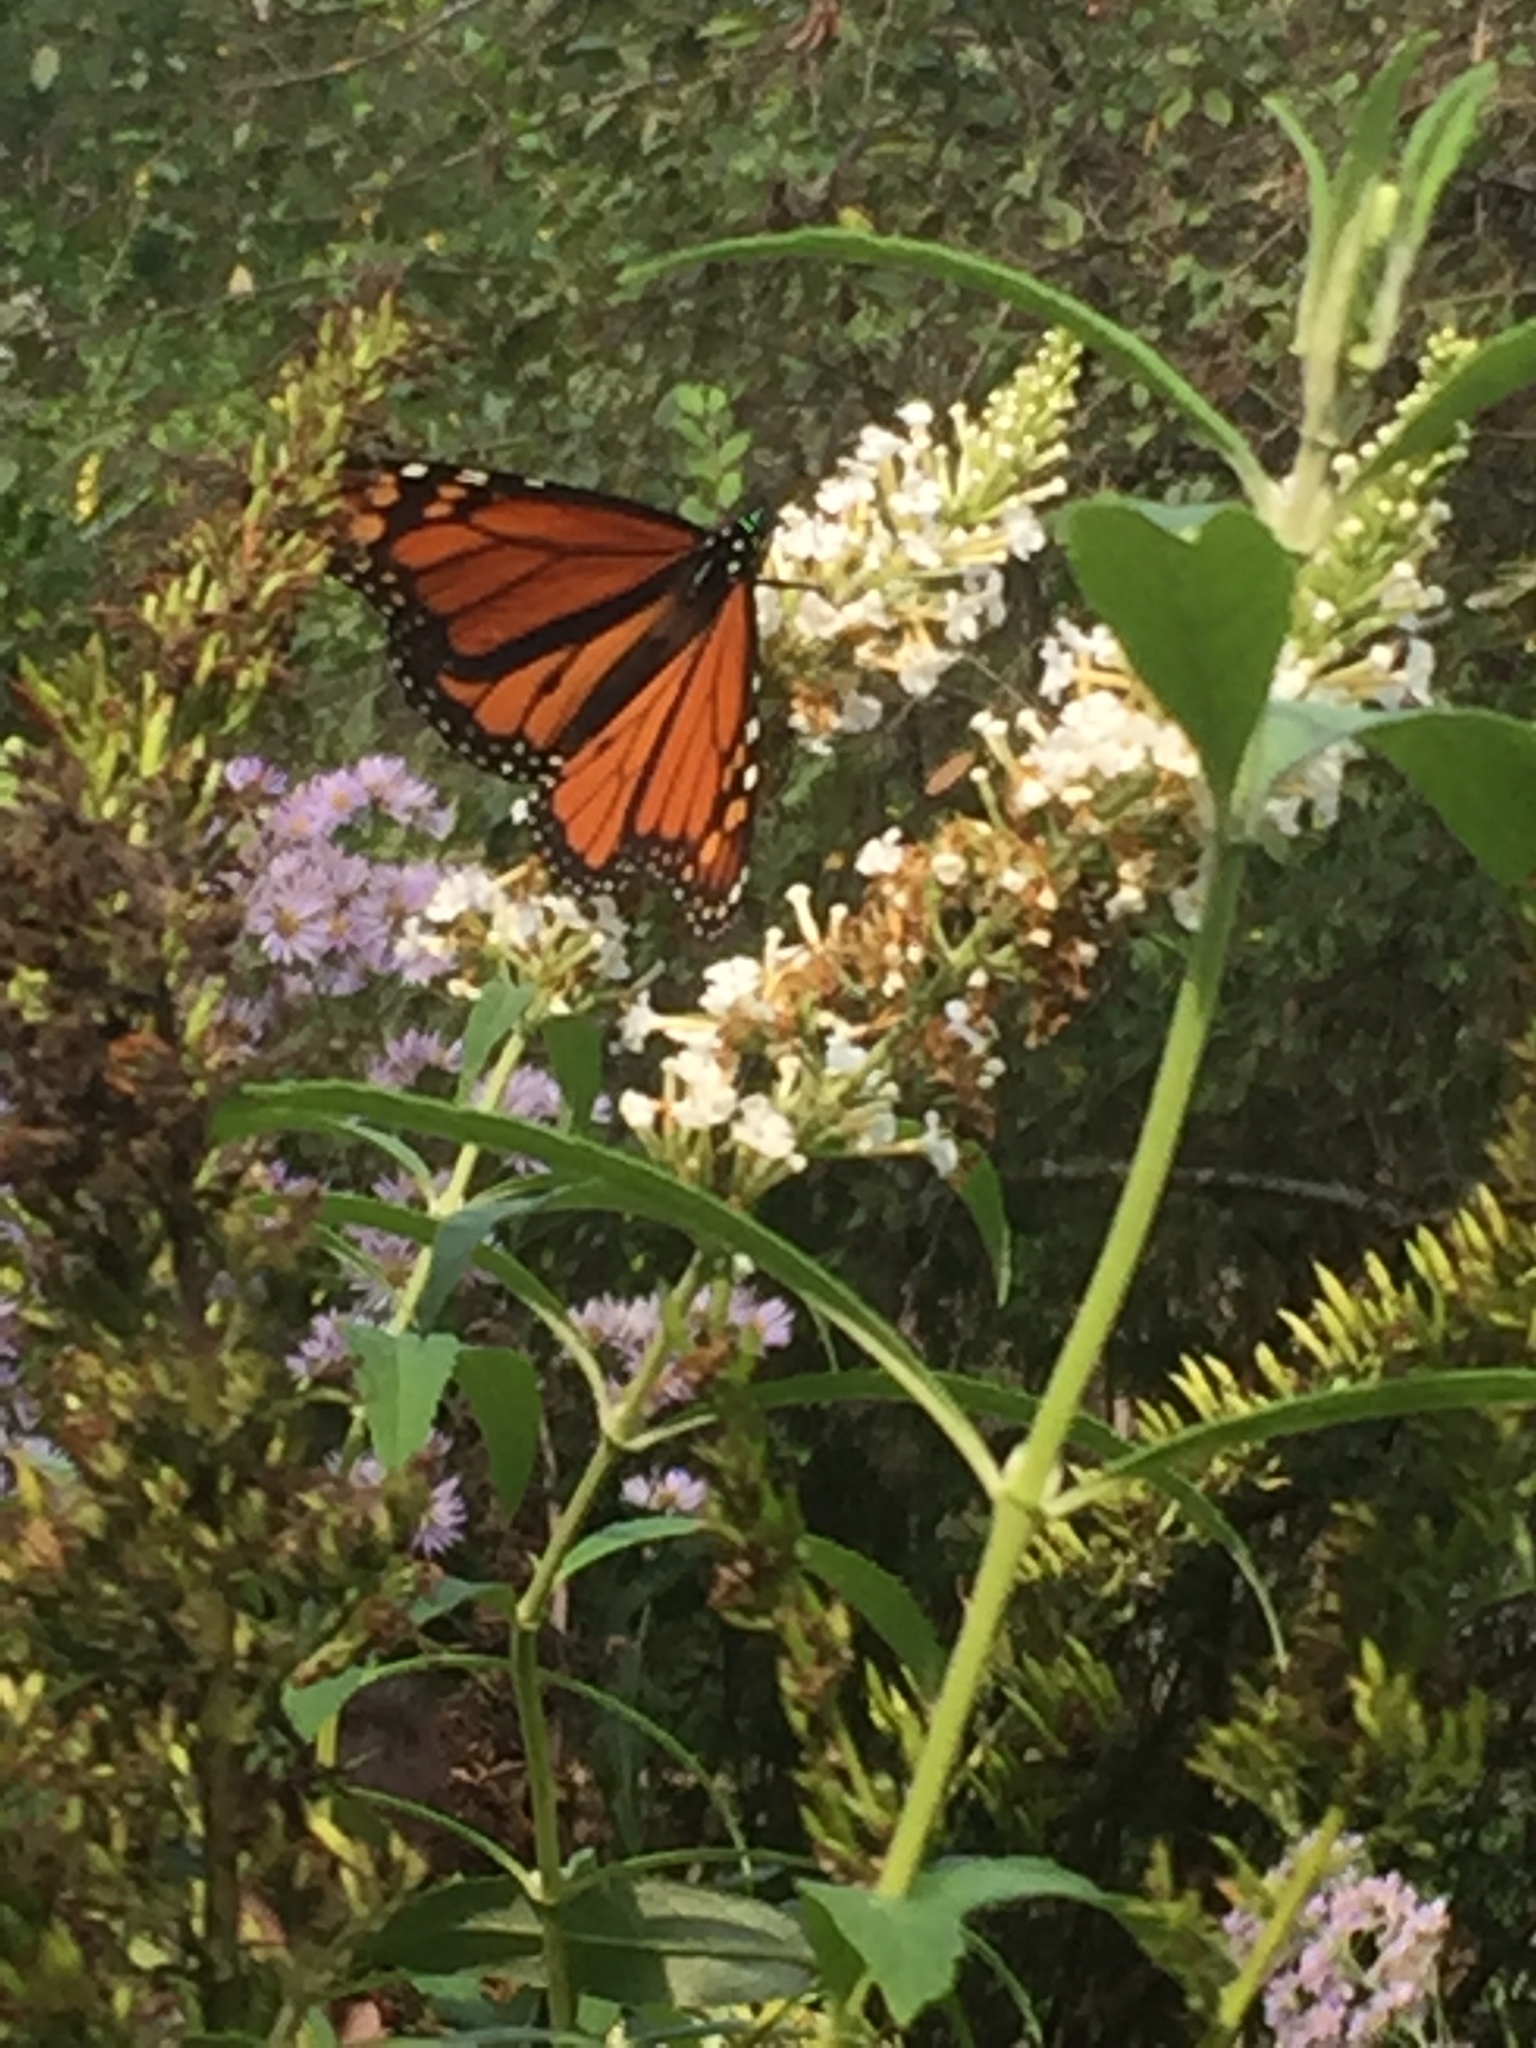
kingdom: Animalia
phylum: Arthropoda
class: Insecta
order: Lepidoptera
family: Nymphalidae
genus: Danaus
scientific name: Danaus plexippus
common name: Monarch
